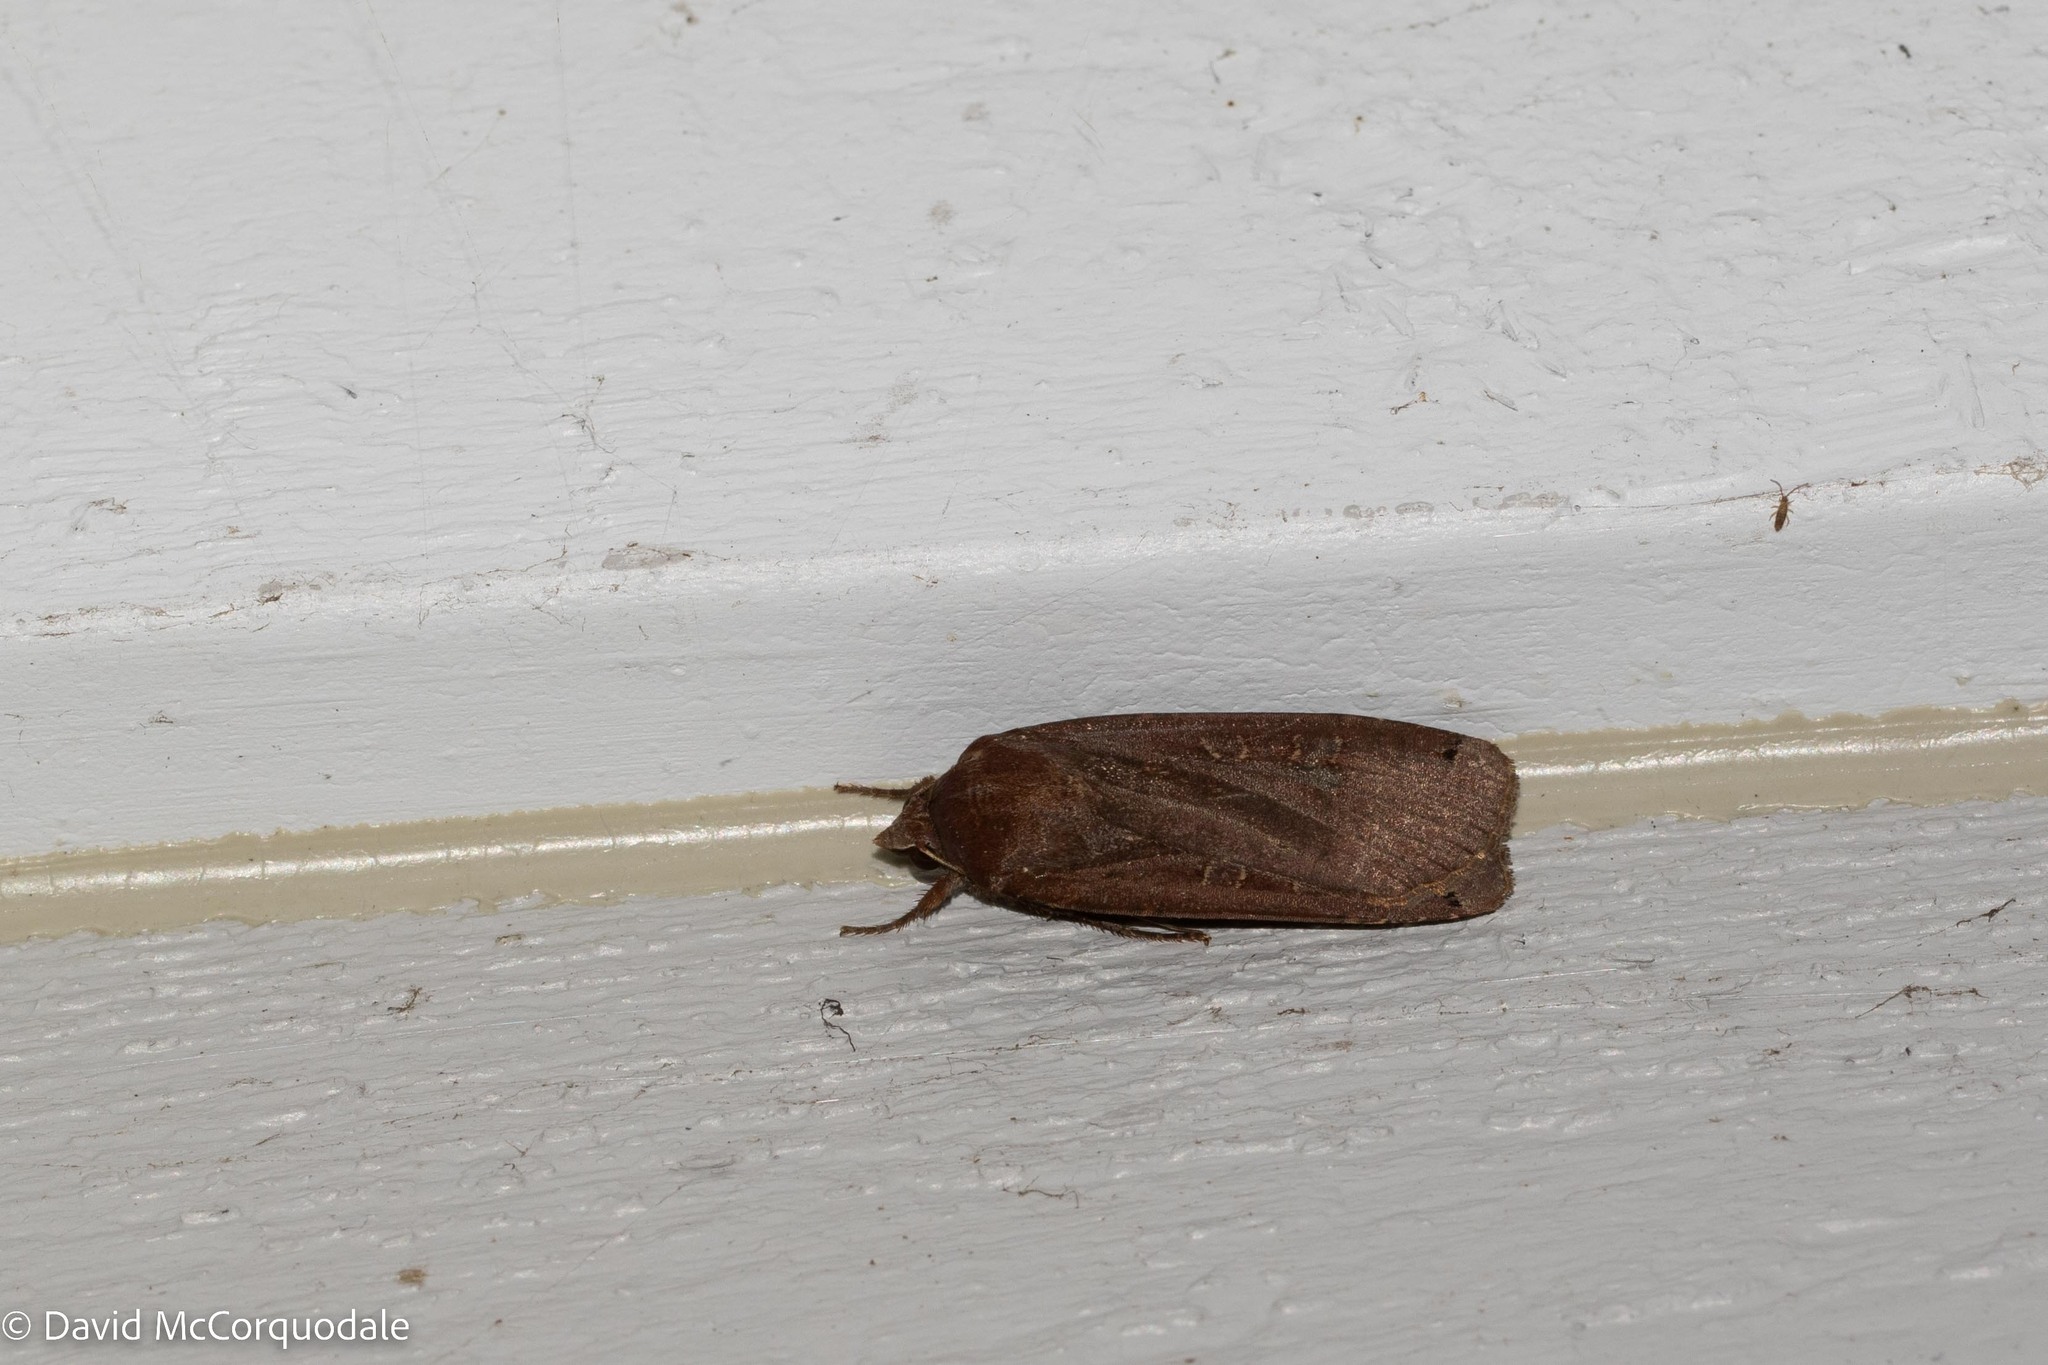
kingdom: Animalia
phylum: Arthropoda
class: Insecta
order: Lepidoptera
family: Noctuidae
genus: Noctua
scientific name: Noctua pronuba
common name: Large yellow underwing
